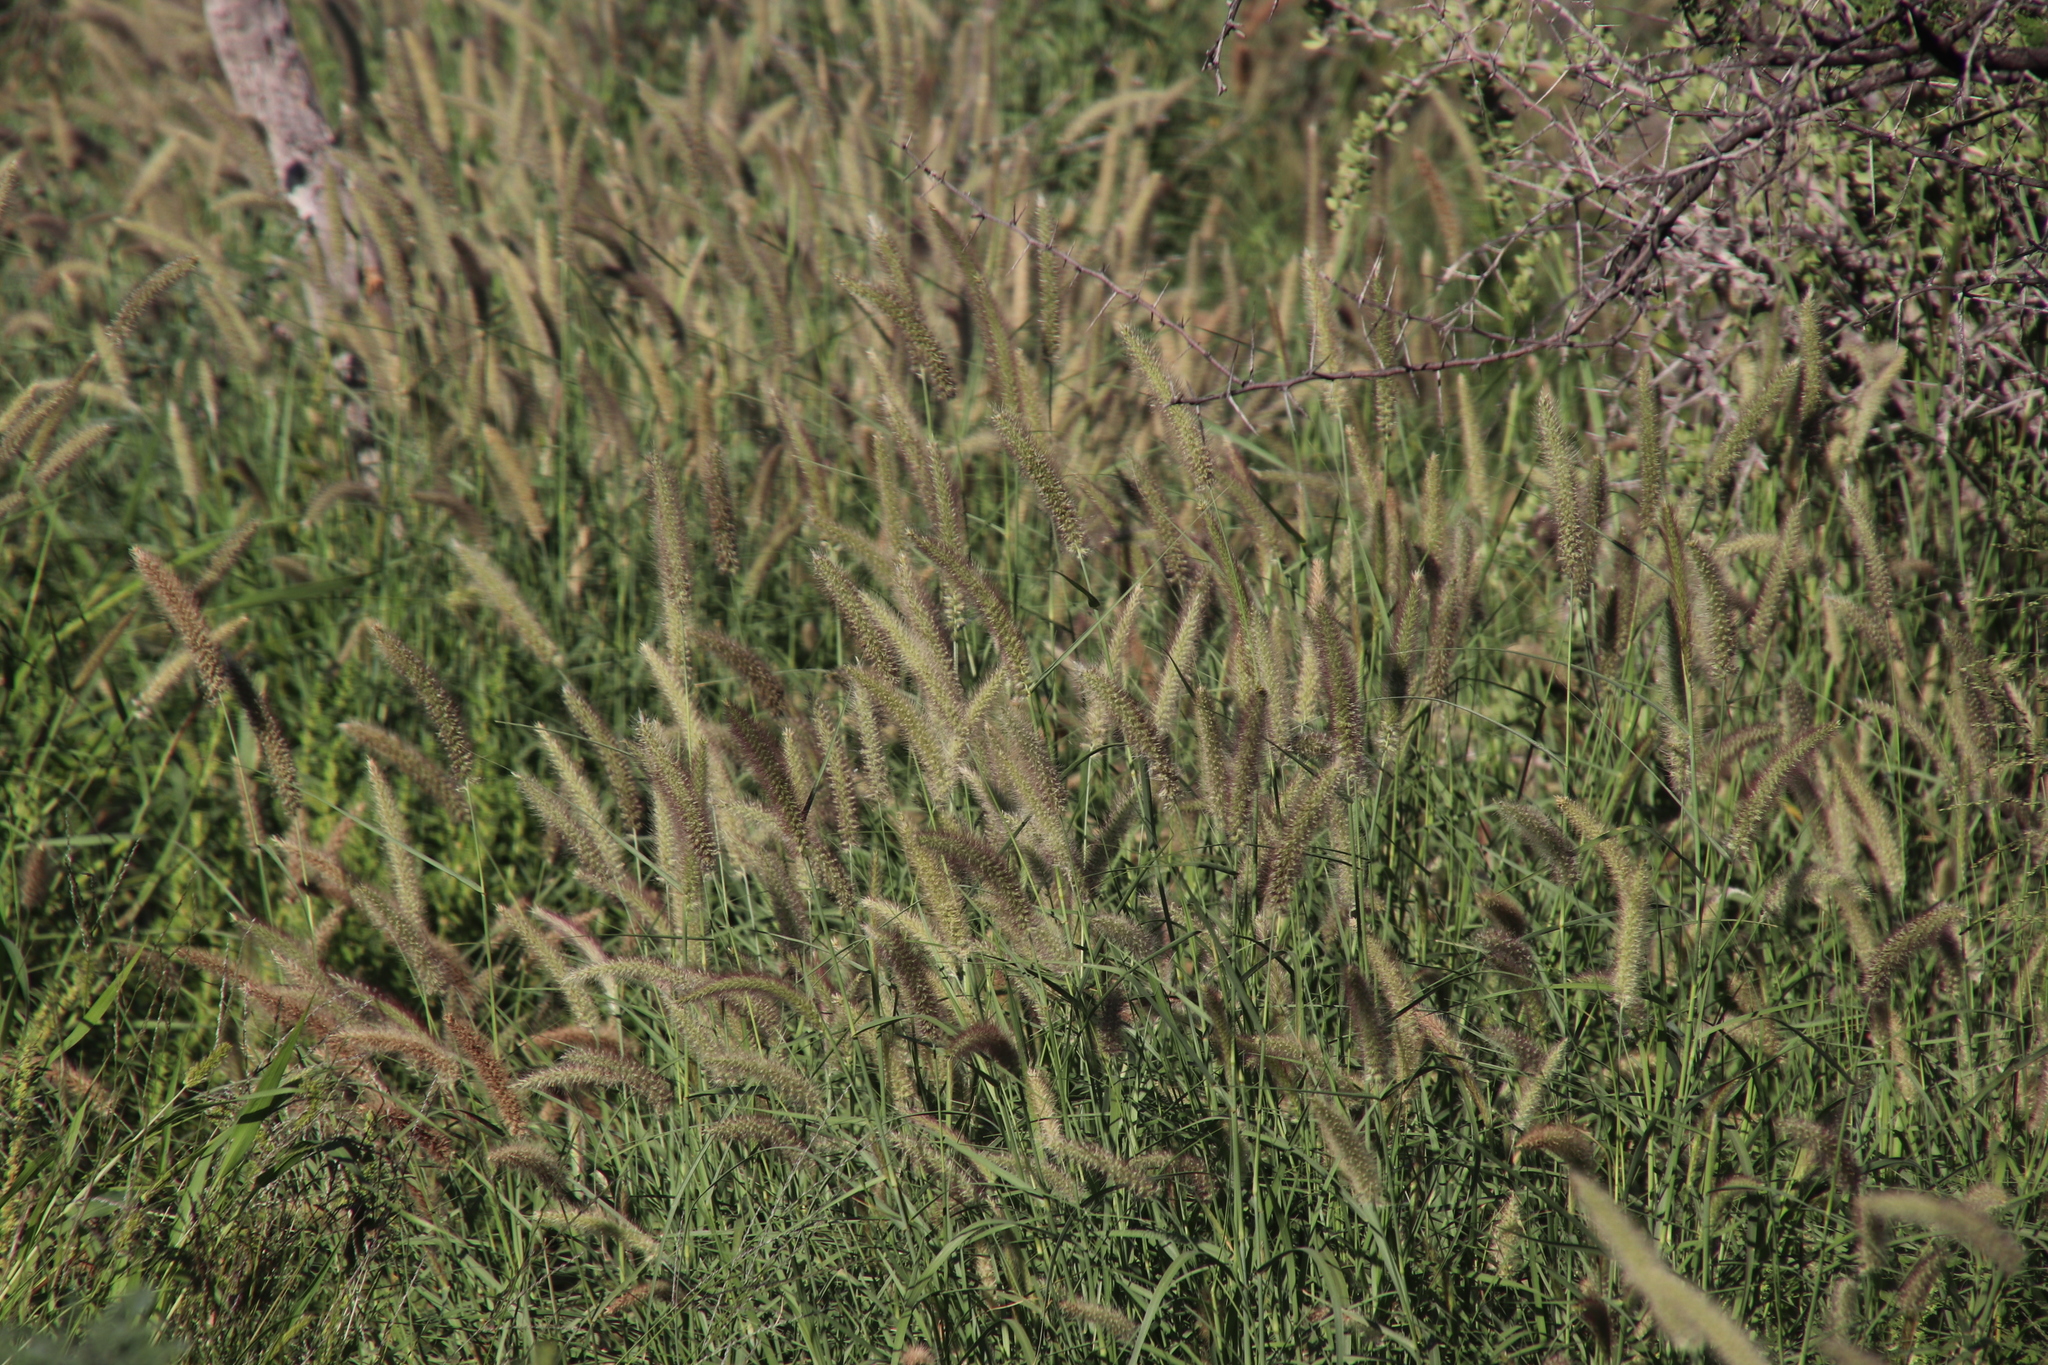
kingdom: Plantae
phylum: Tracheophyta
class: Liliopsida
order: Poales
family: Poaceae
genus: Cenchrus
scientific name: Cenchrus ciliaris
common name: Buffelgrass
